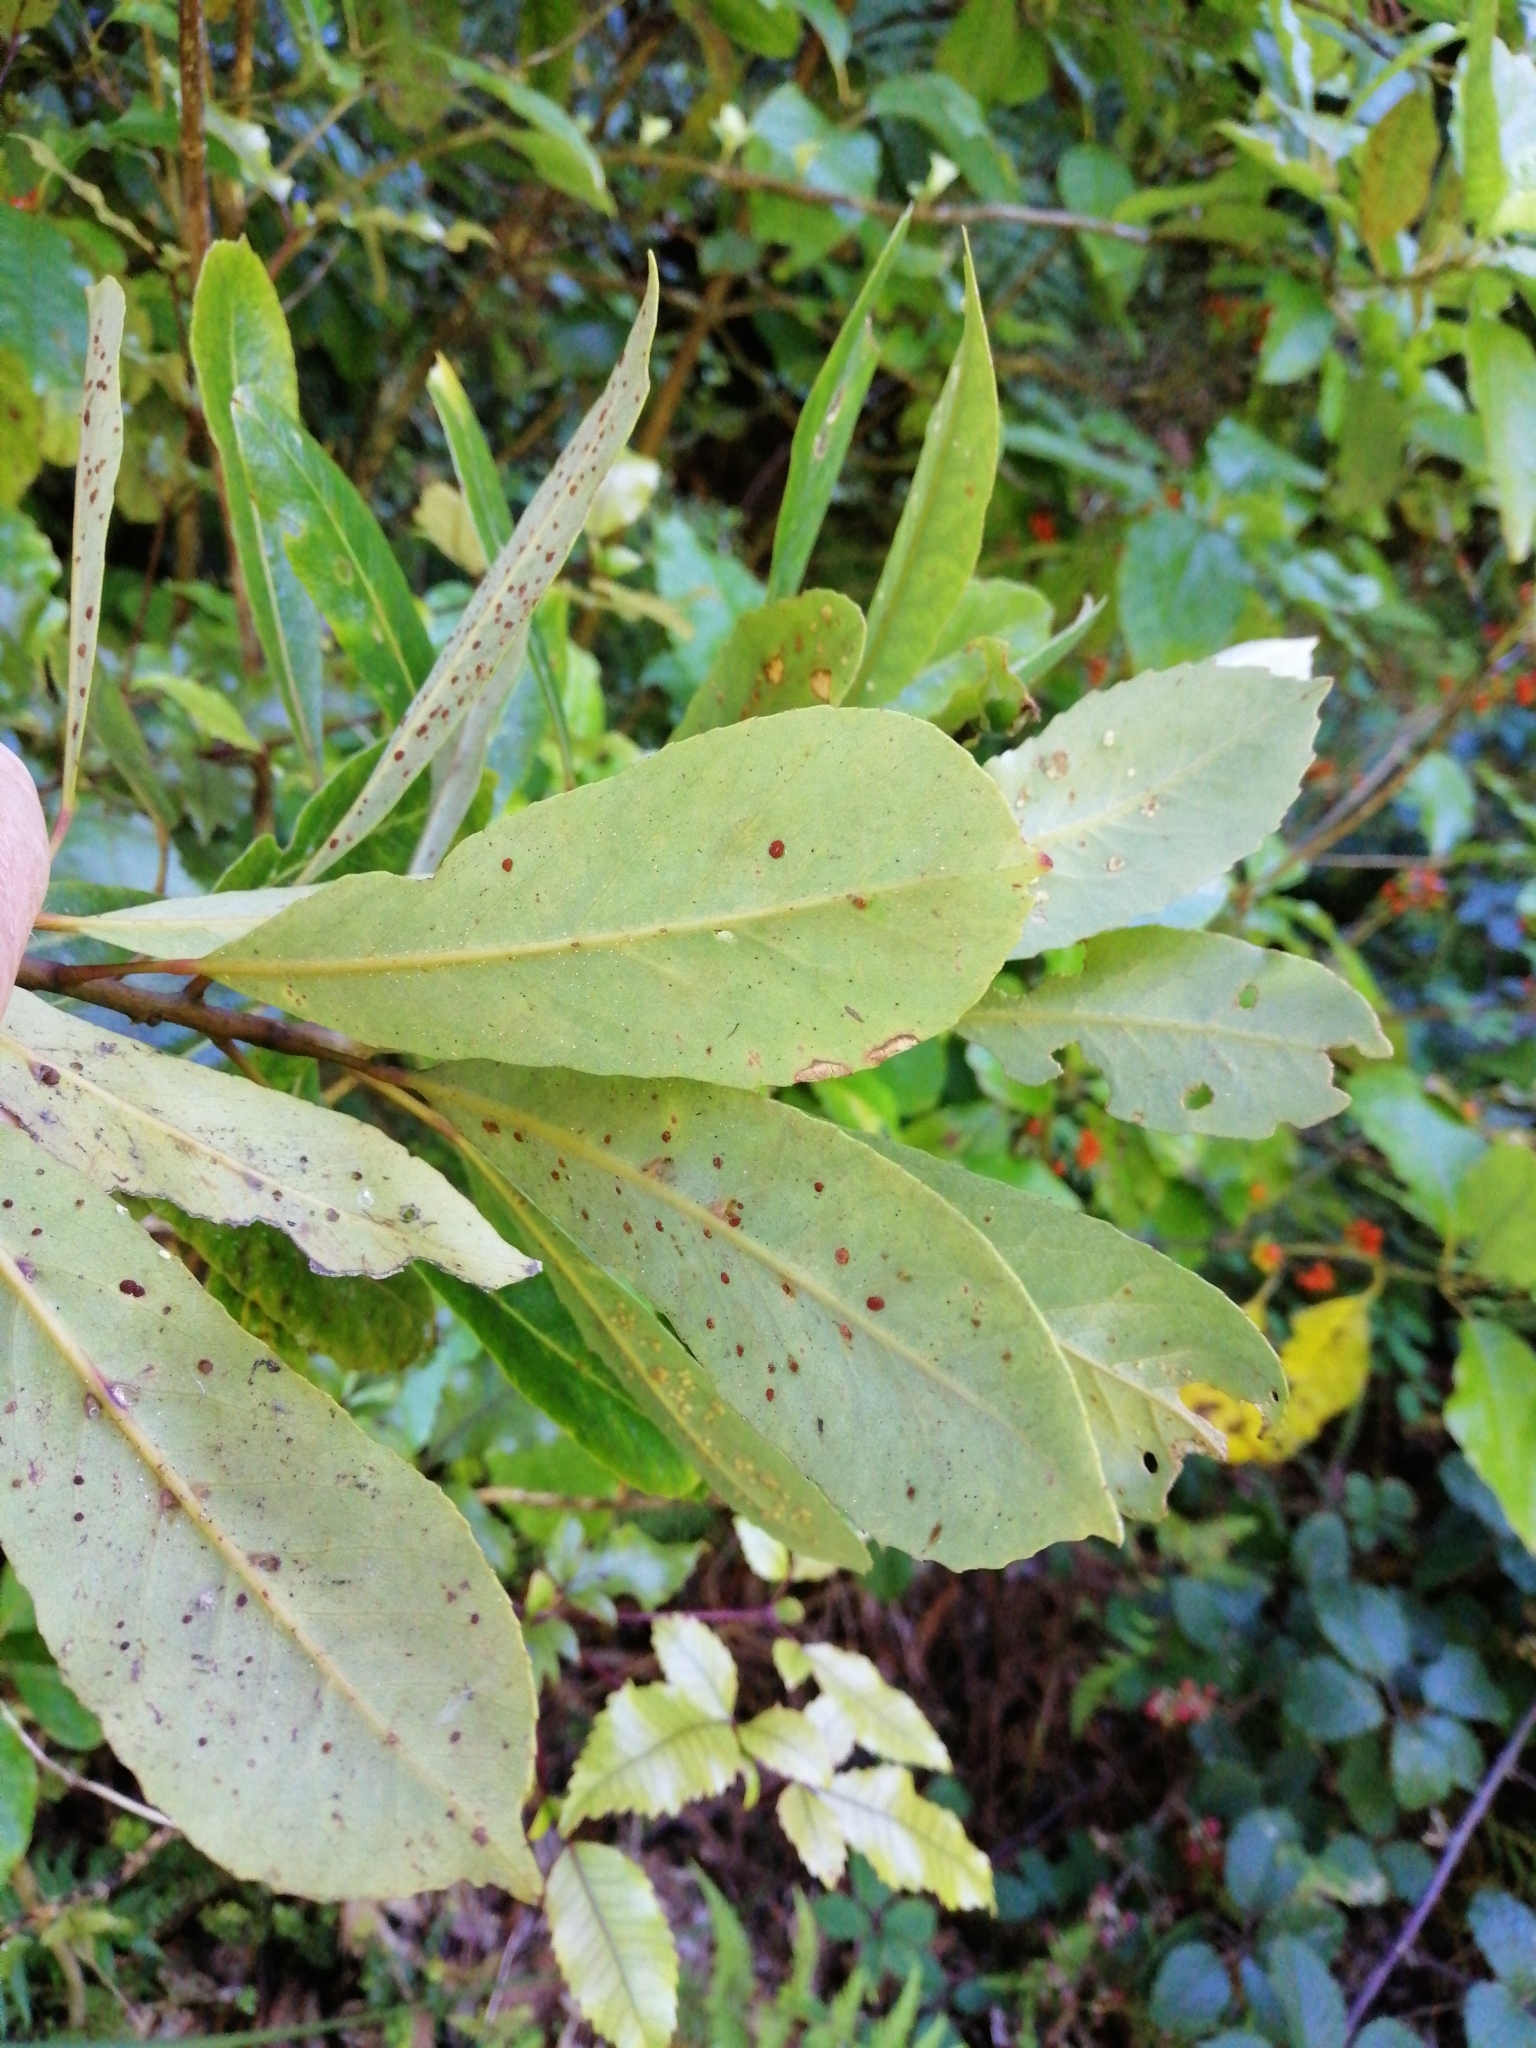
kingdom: Plantae
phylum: Tracheophyta
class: Magnoliopsida
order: Oxalidales
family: Elaeocarpaceae
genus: Elaeocarpus
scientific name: Elaeocarpus dentatus
